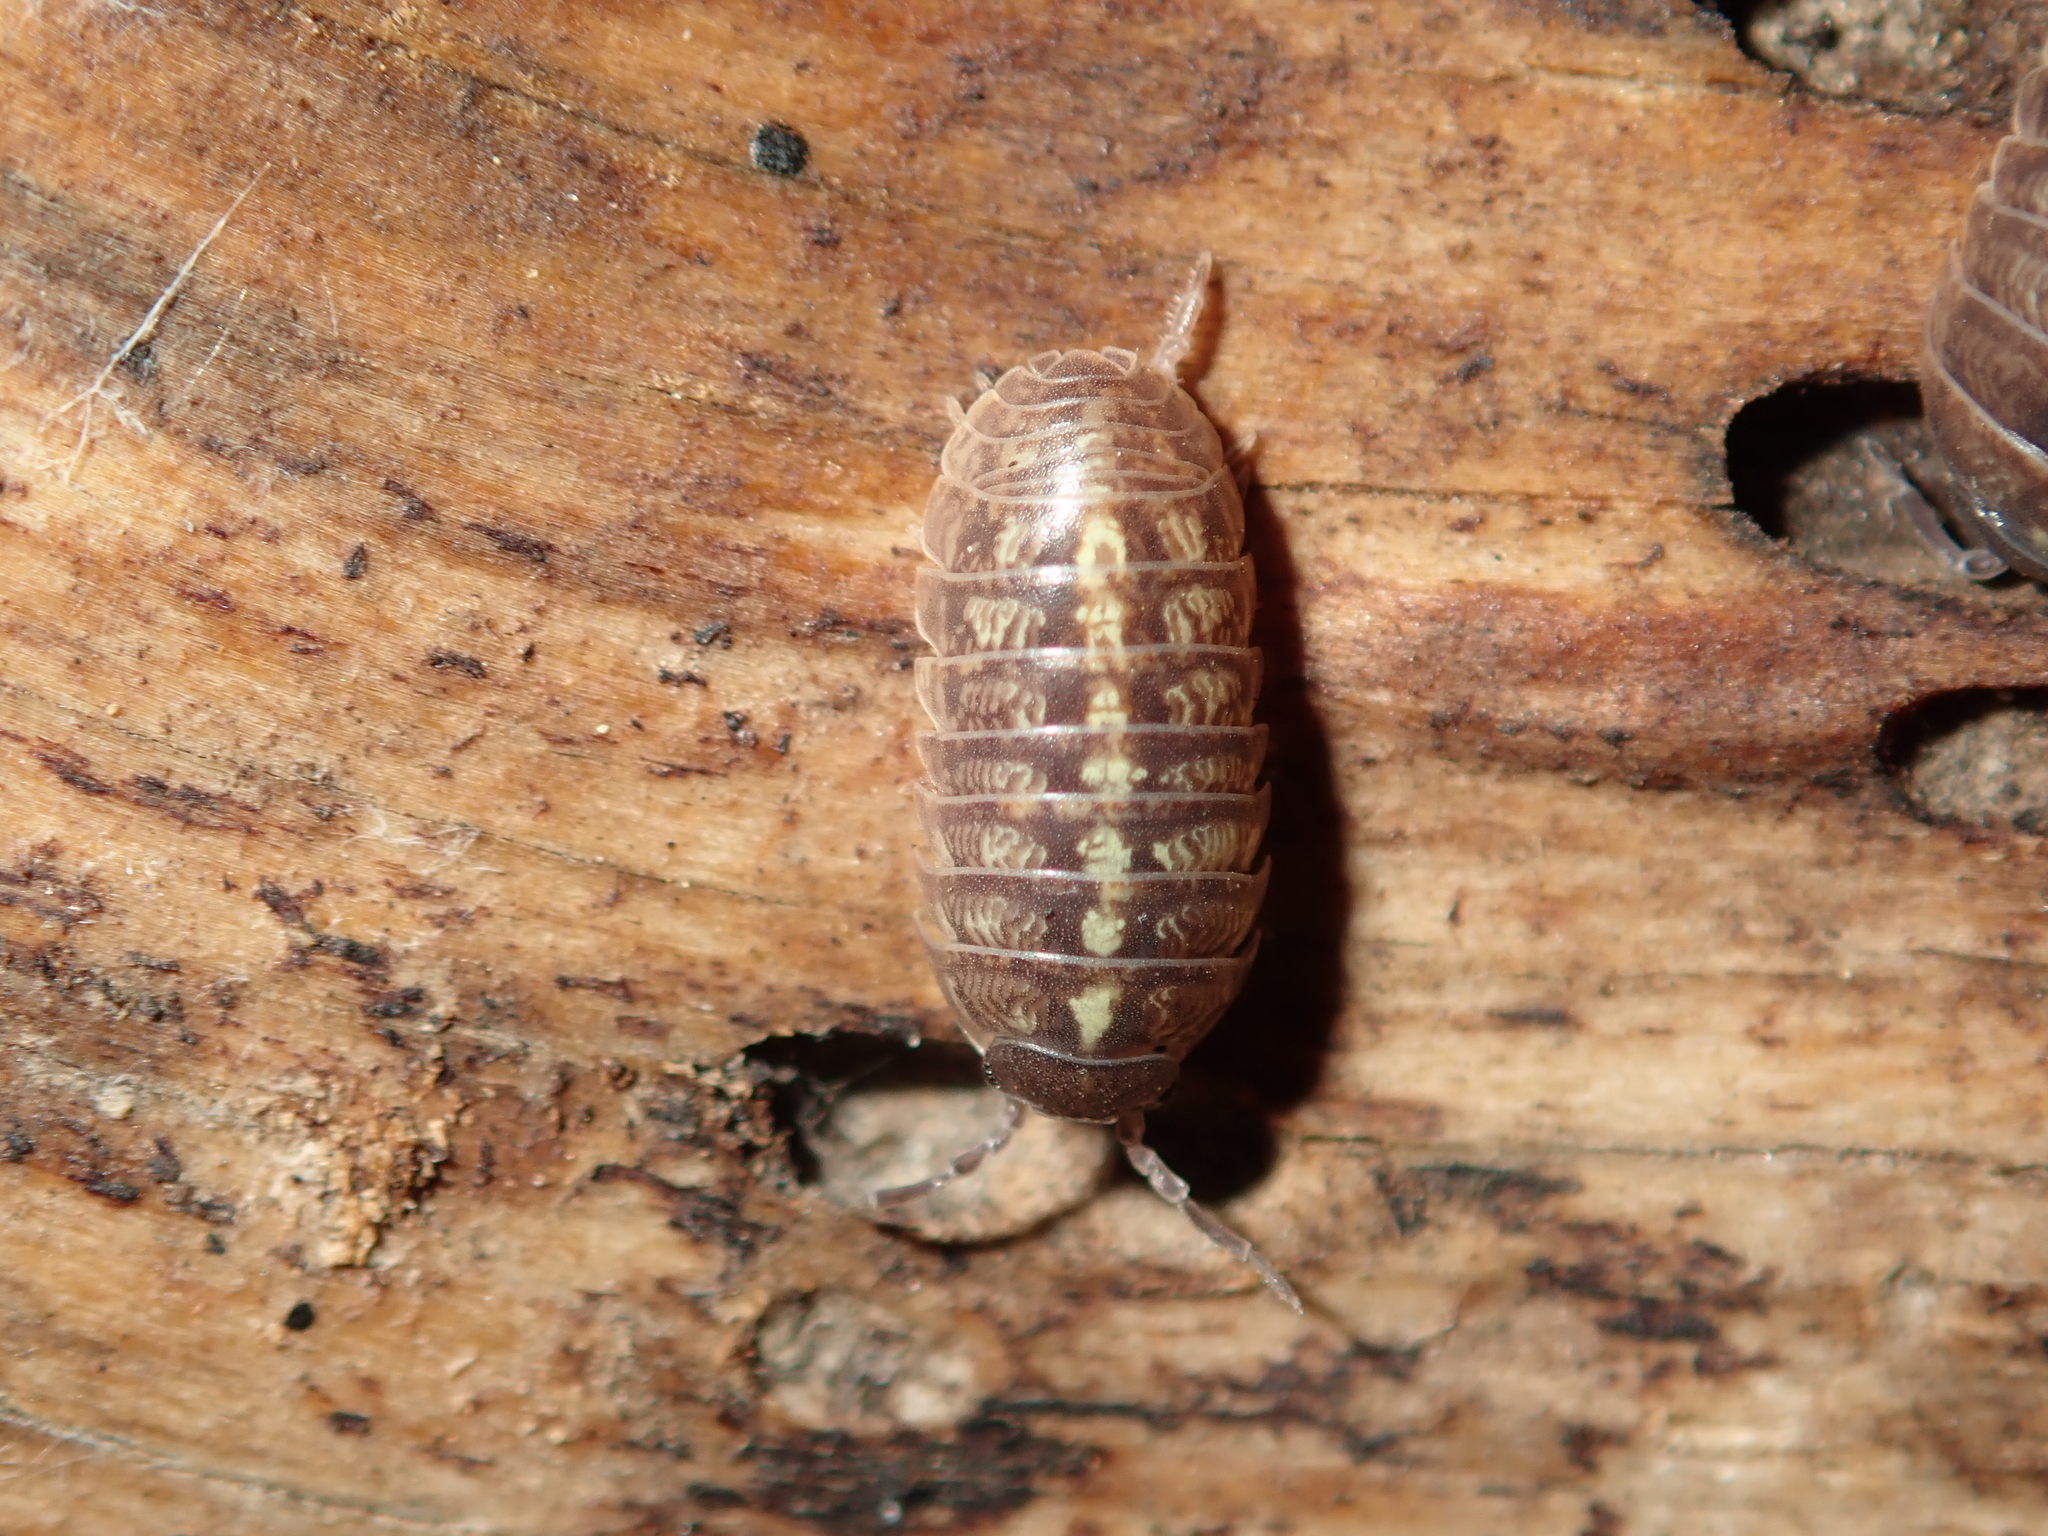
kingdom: Animalia
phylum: Arthropoda
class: Malacostraca
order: Isopoda
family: Armadillidiidae
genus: Armadillidium
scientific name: Armadillidium vulgare
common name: Common pill woodlouse
